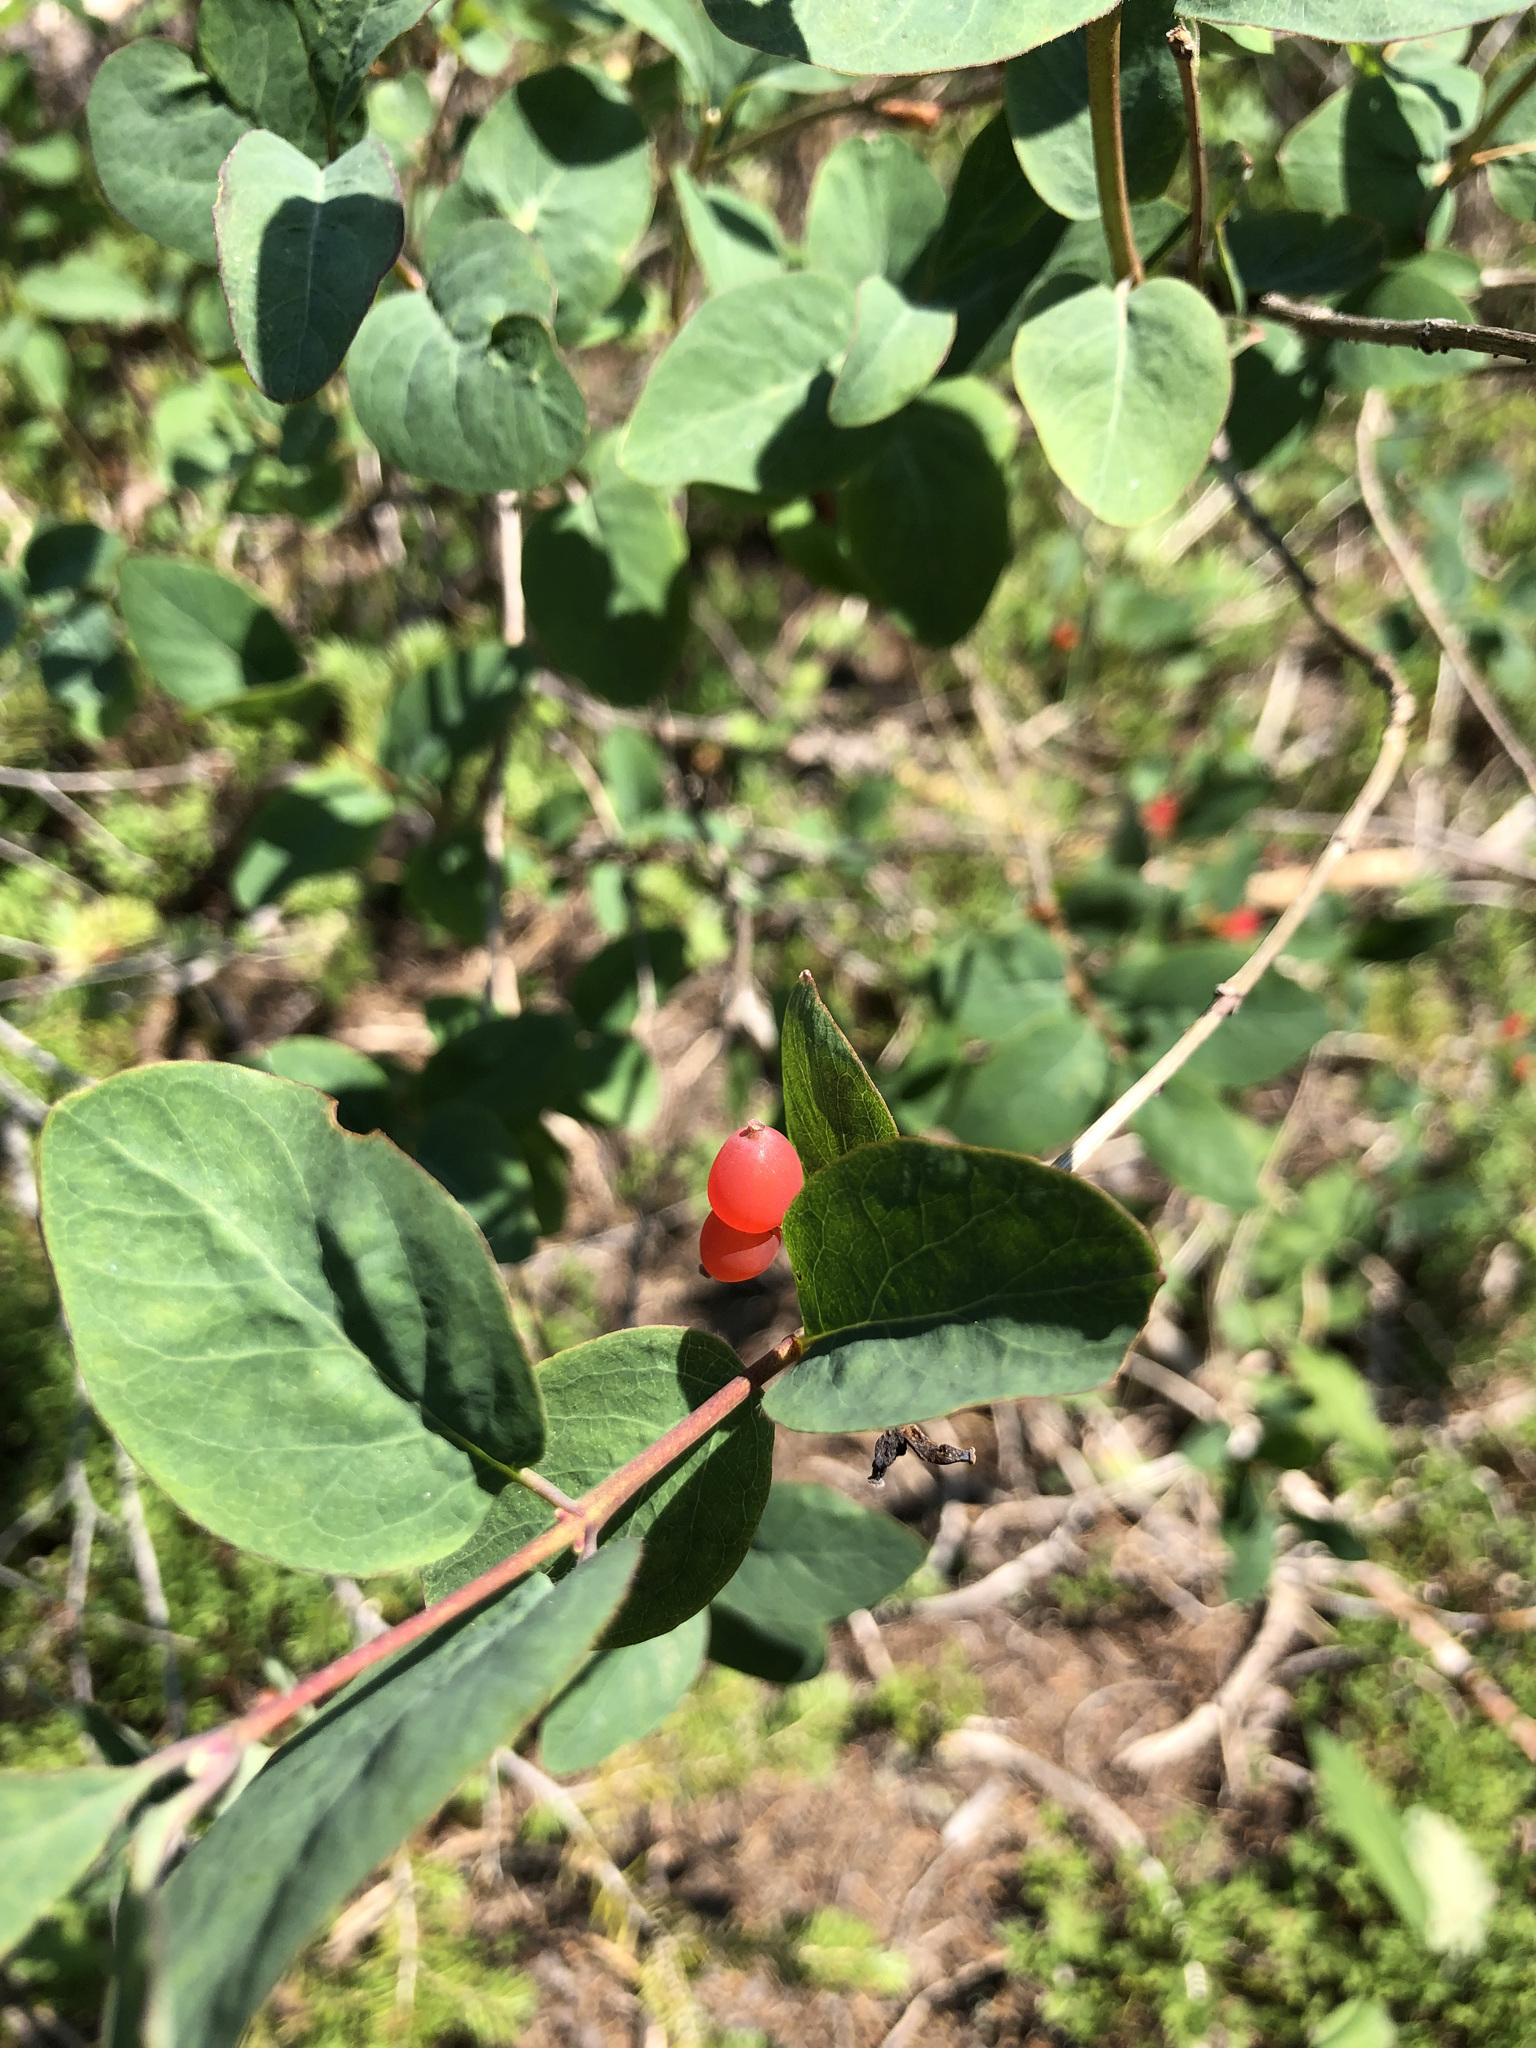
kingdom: Plantae
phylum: Tracheophyta
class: Magnoliopsida
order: Dipsacales
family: Caprifoliaceae
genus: Lonicera
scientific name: Lonicera utahensis
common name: Utah honeysuckle
